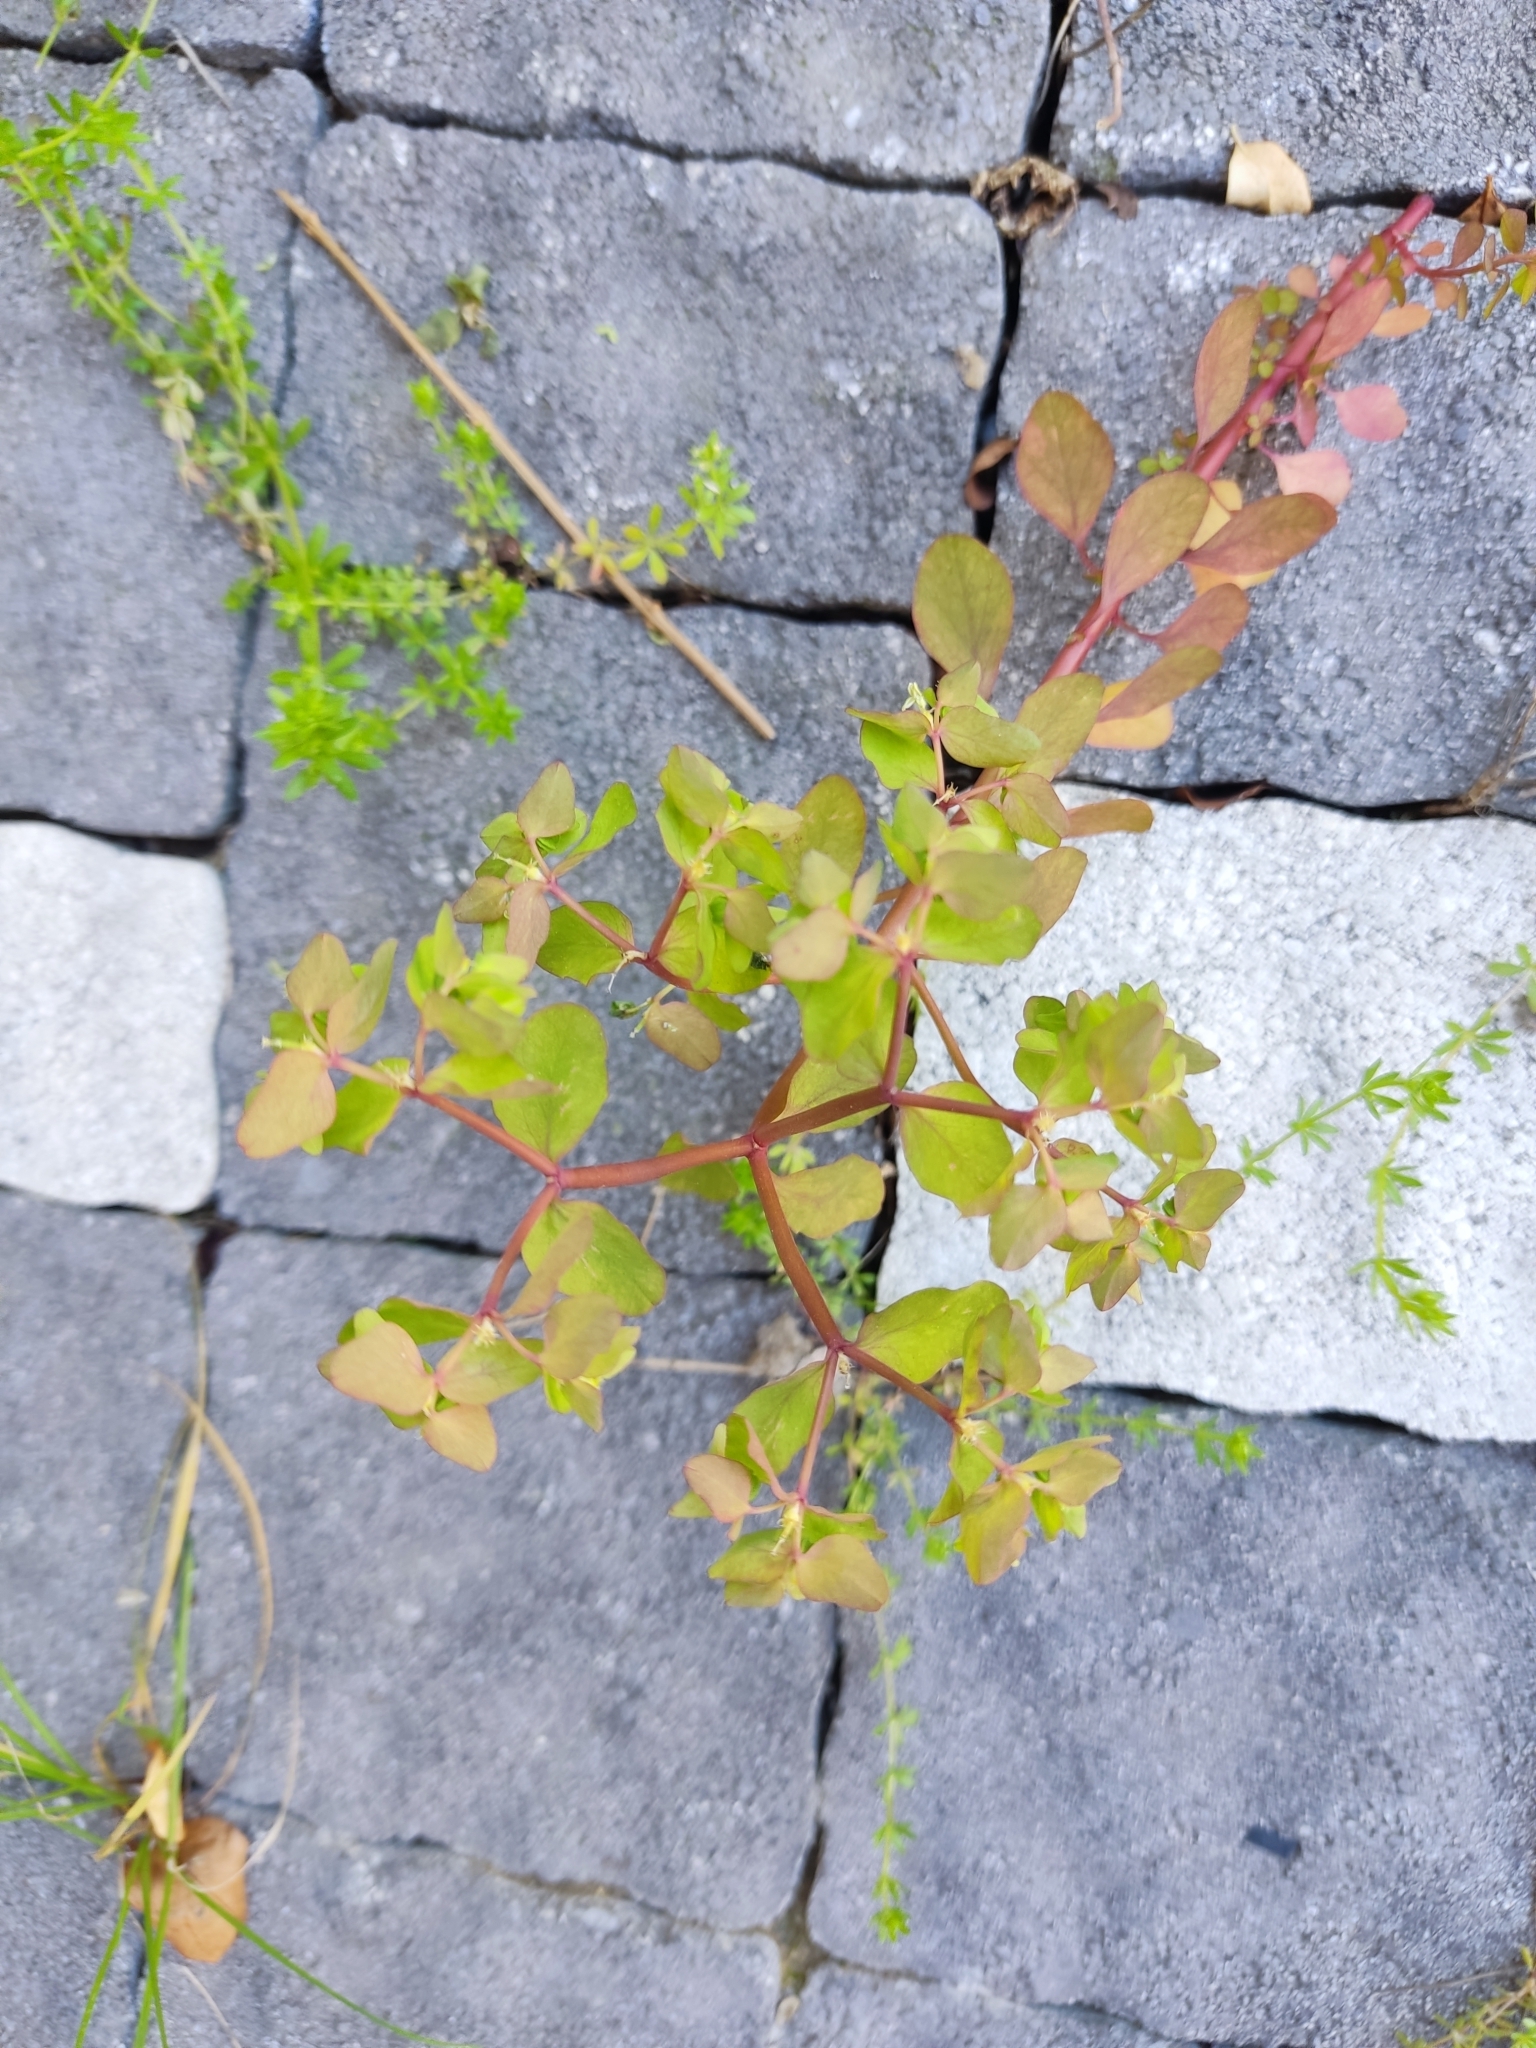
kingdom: Plantae
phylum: Tracheophyta
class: Magnoliopsida
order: Malpighiales
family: Euphorbiaceae
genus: Euphorbia
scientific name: Euphorbia peplus
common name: Petty spurge
